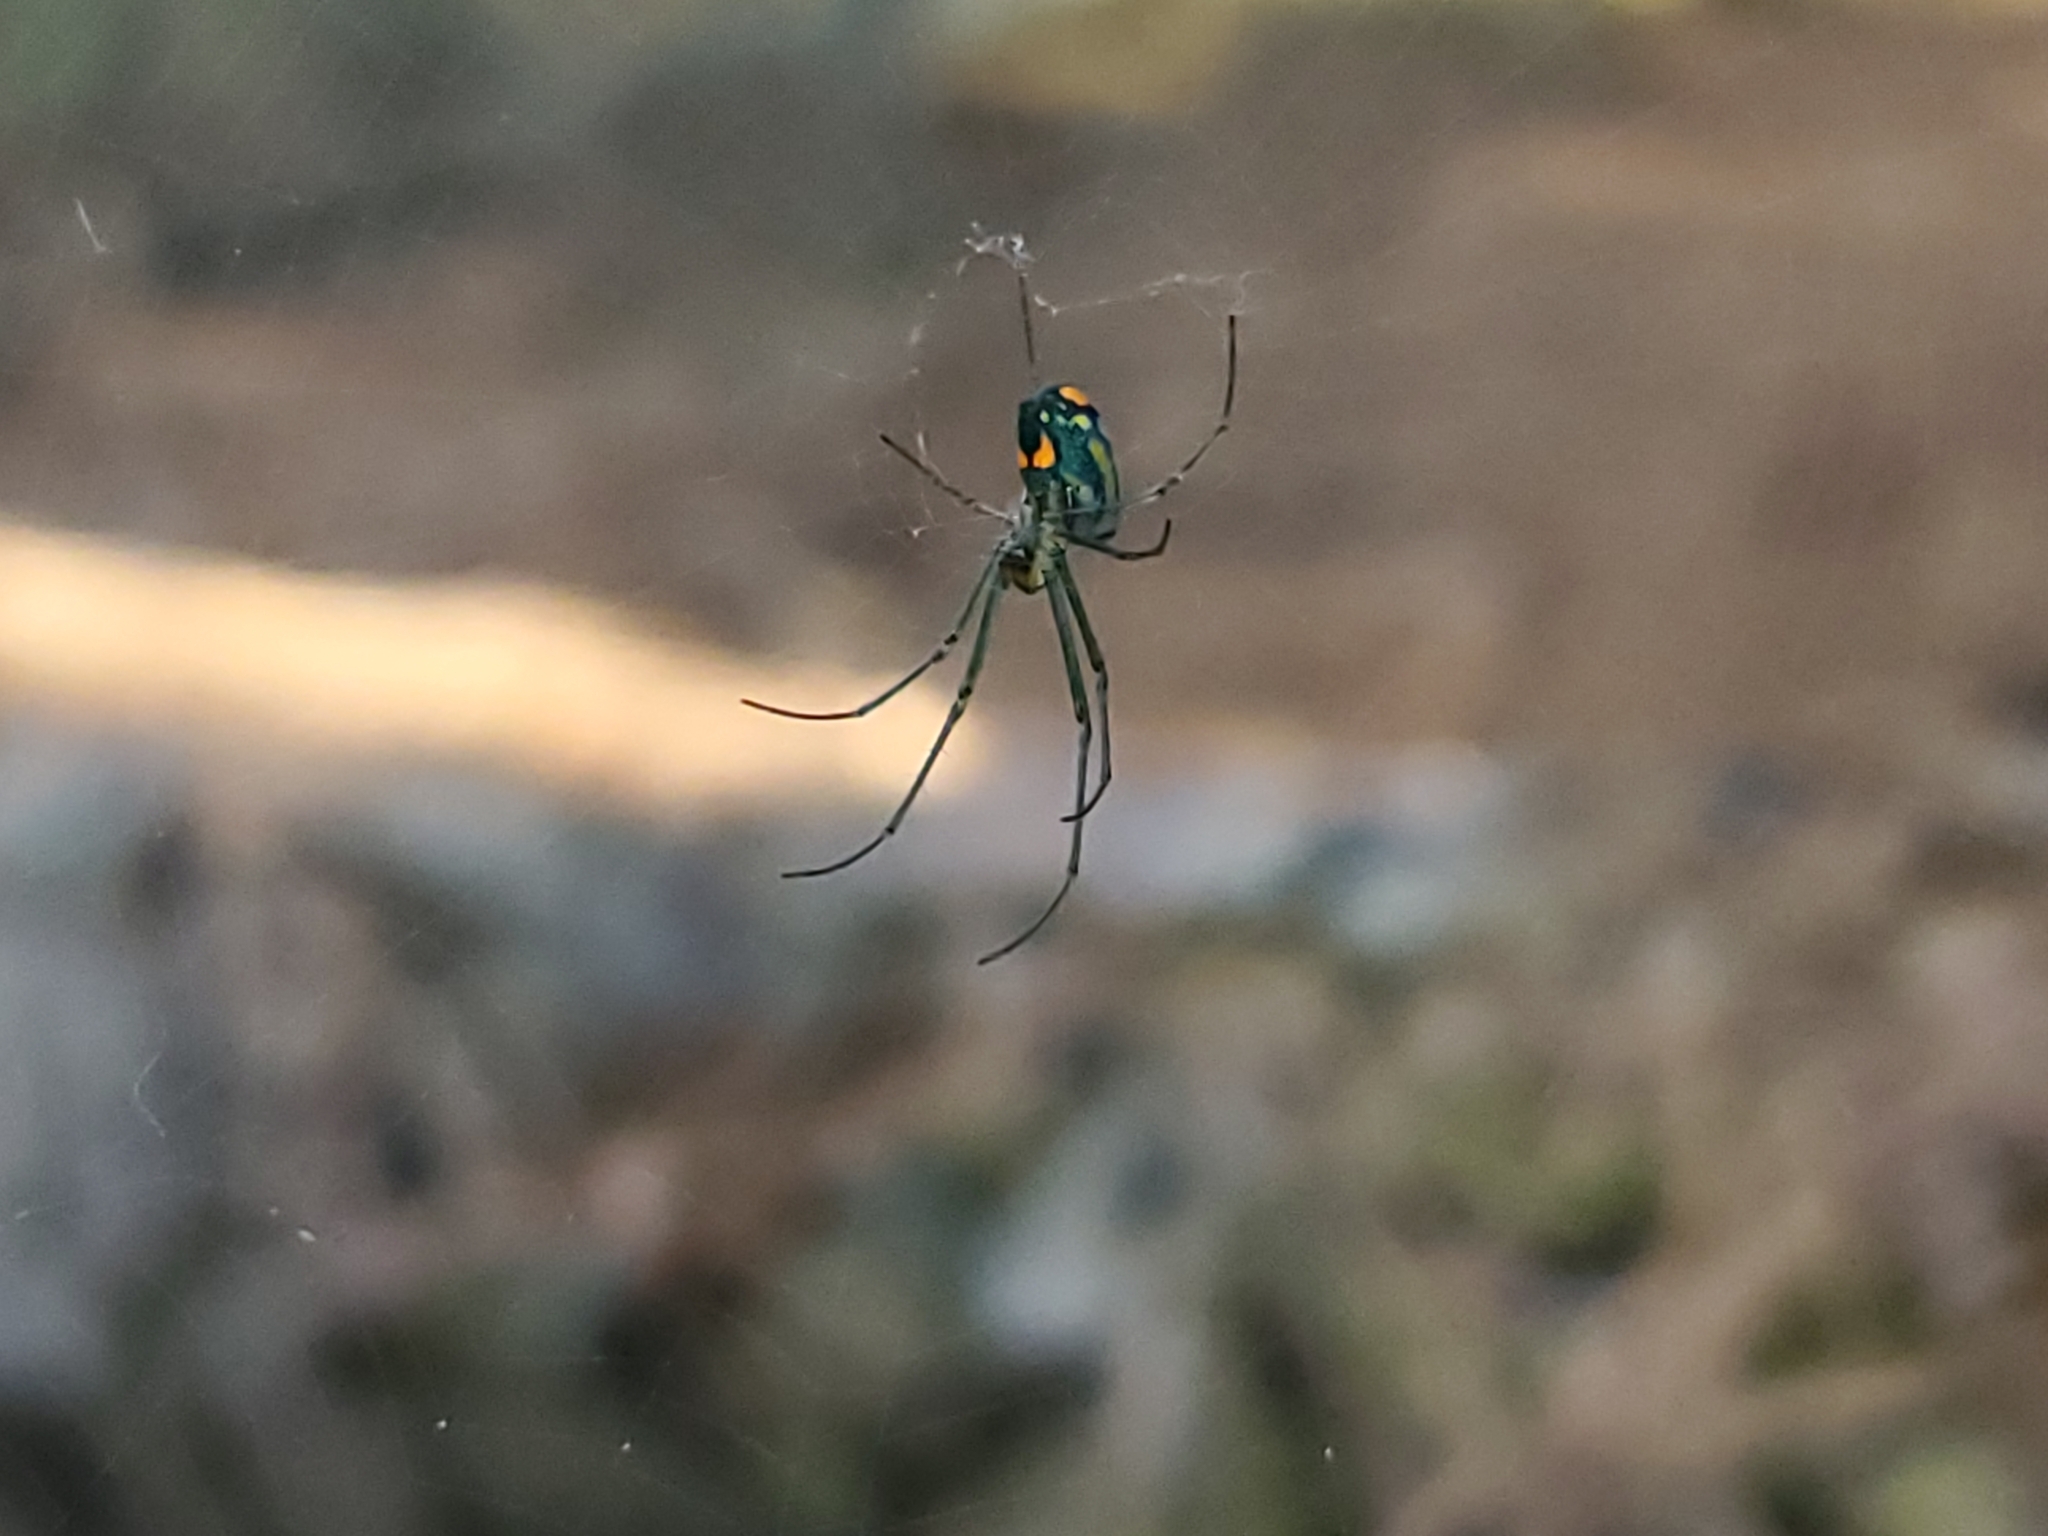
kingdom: Animalia
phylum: Arthropoda
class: Arachnida
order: Araneae
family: Tetragnathidae
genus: Leucauge
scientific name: Leucauge argyrobapta
